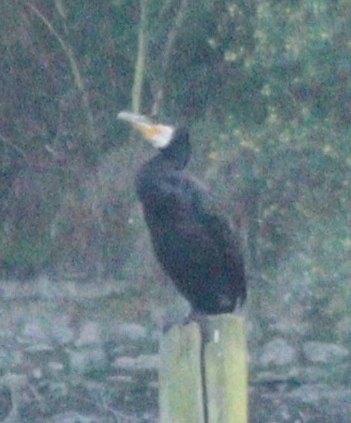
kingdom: Animalia
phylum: Chordata
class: Aves
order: Suliformes
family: Phalacrocoracidae
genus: Phalacrocorax
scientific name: Phalacrocorax carbo
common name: Great cormorant
